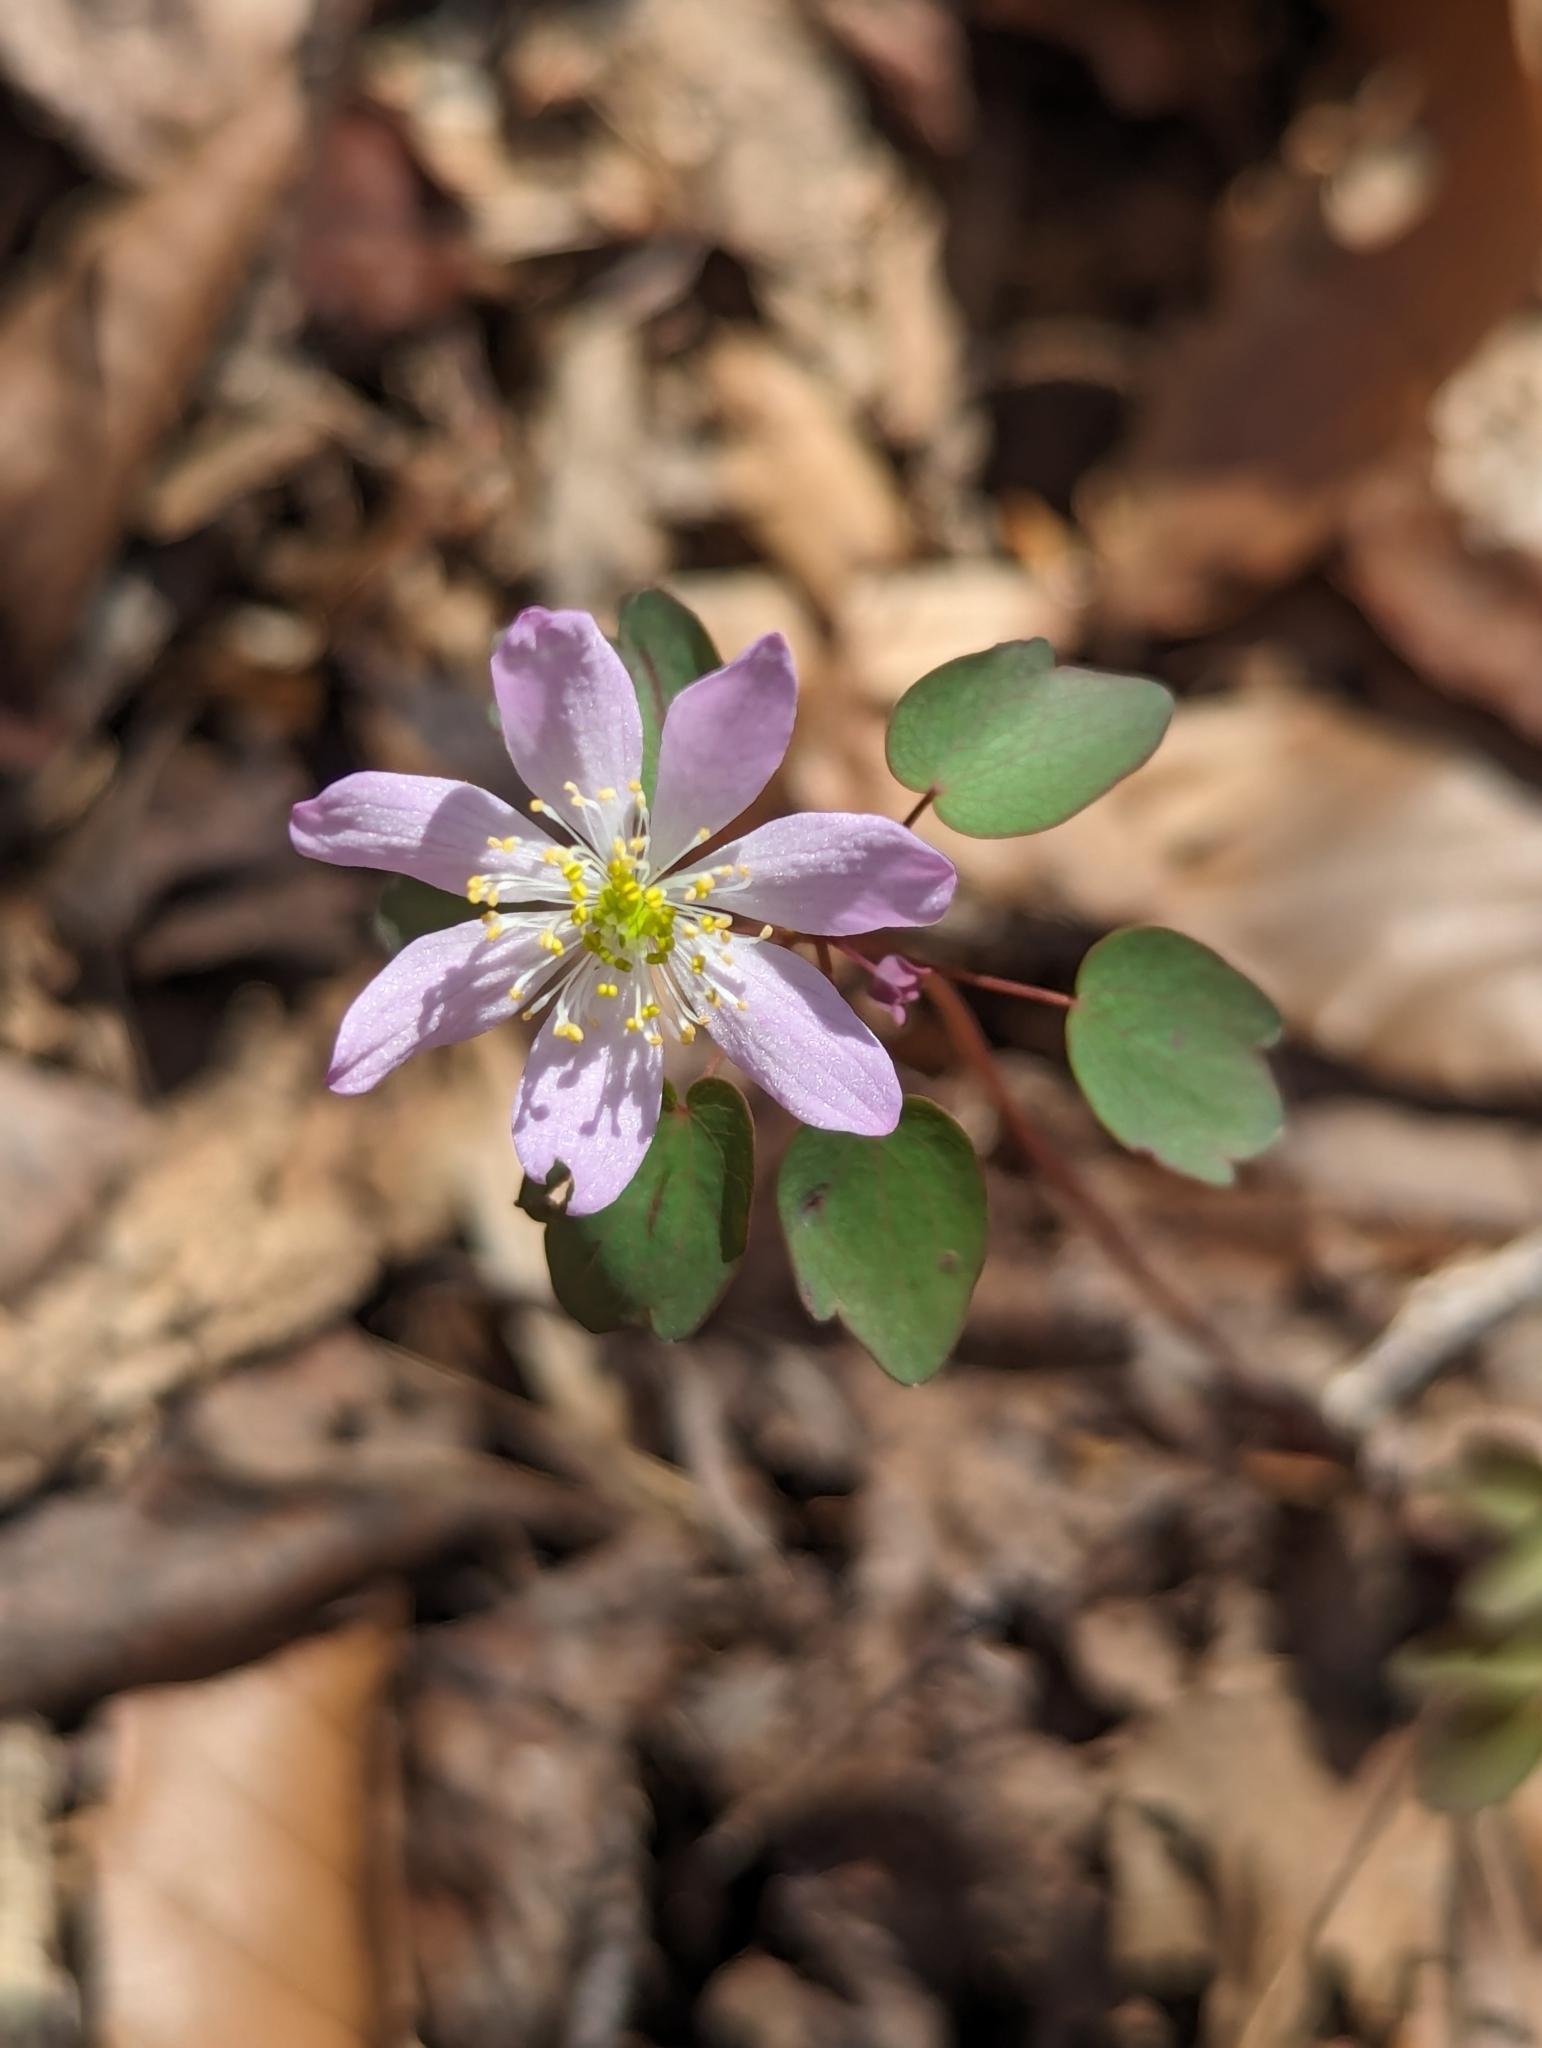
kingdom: Plantae
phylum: Tracheophyta
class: Magnoliopsida
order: Ranunculales
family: Ranunculaceae
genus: Thalictrum
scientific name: Thalictrum thalictroides
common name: Rue-anemone
